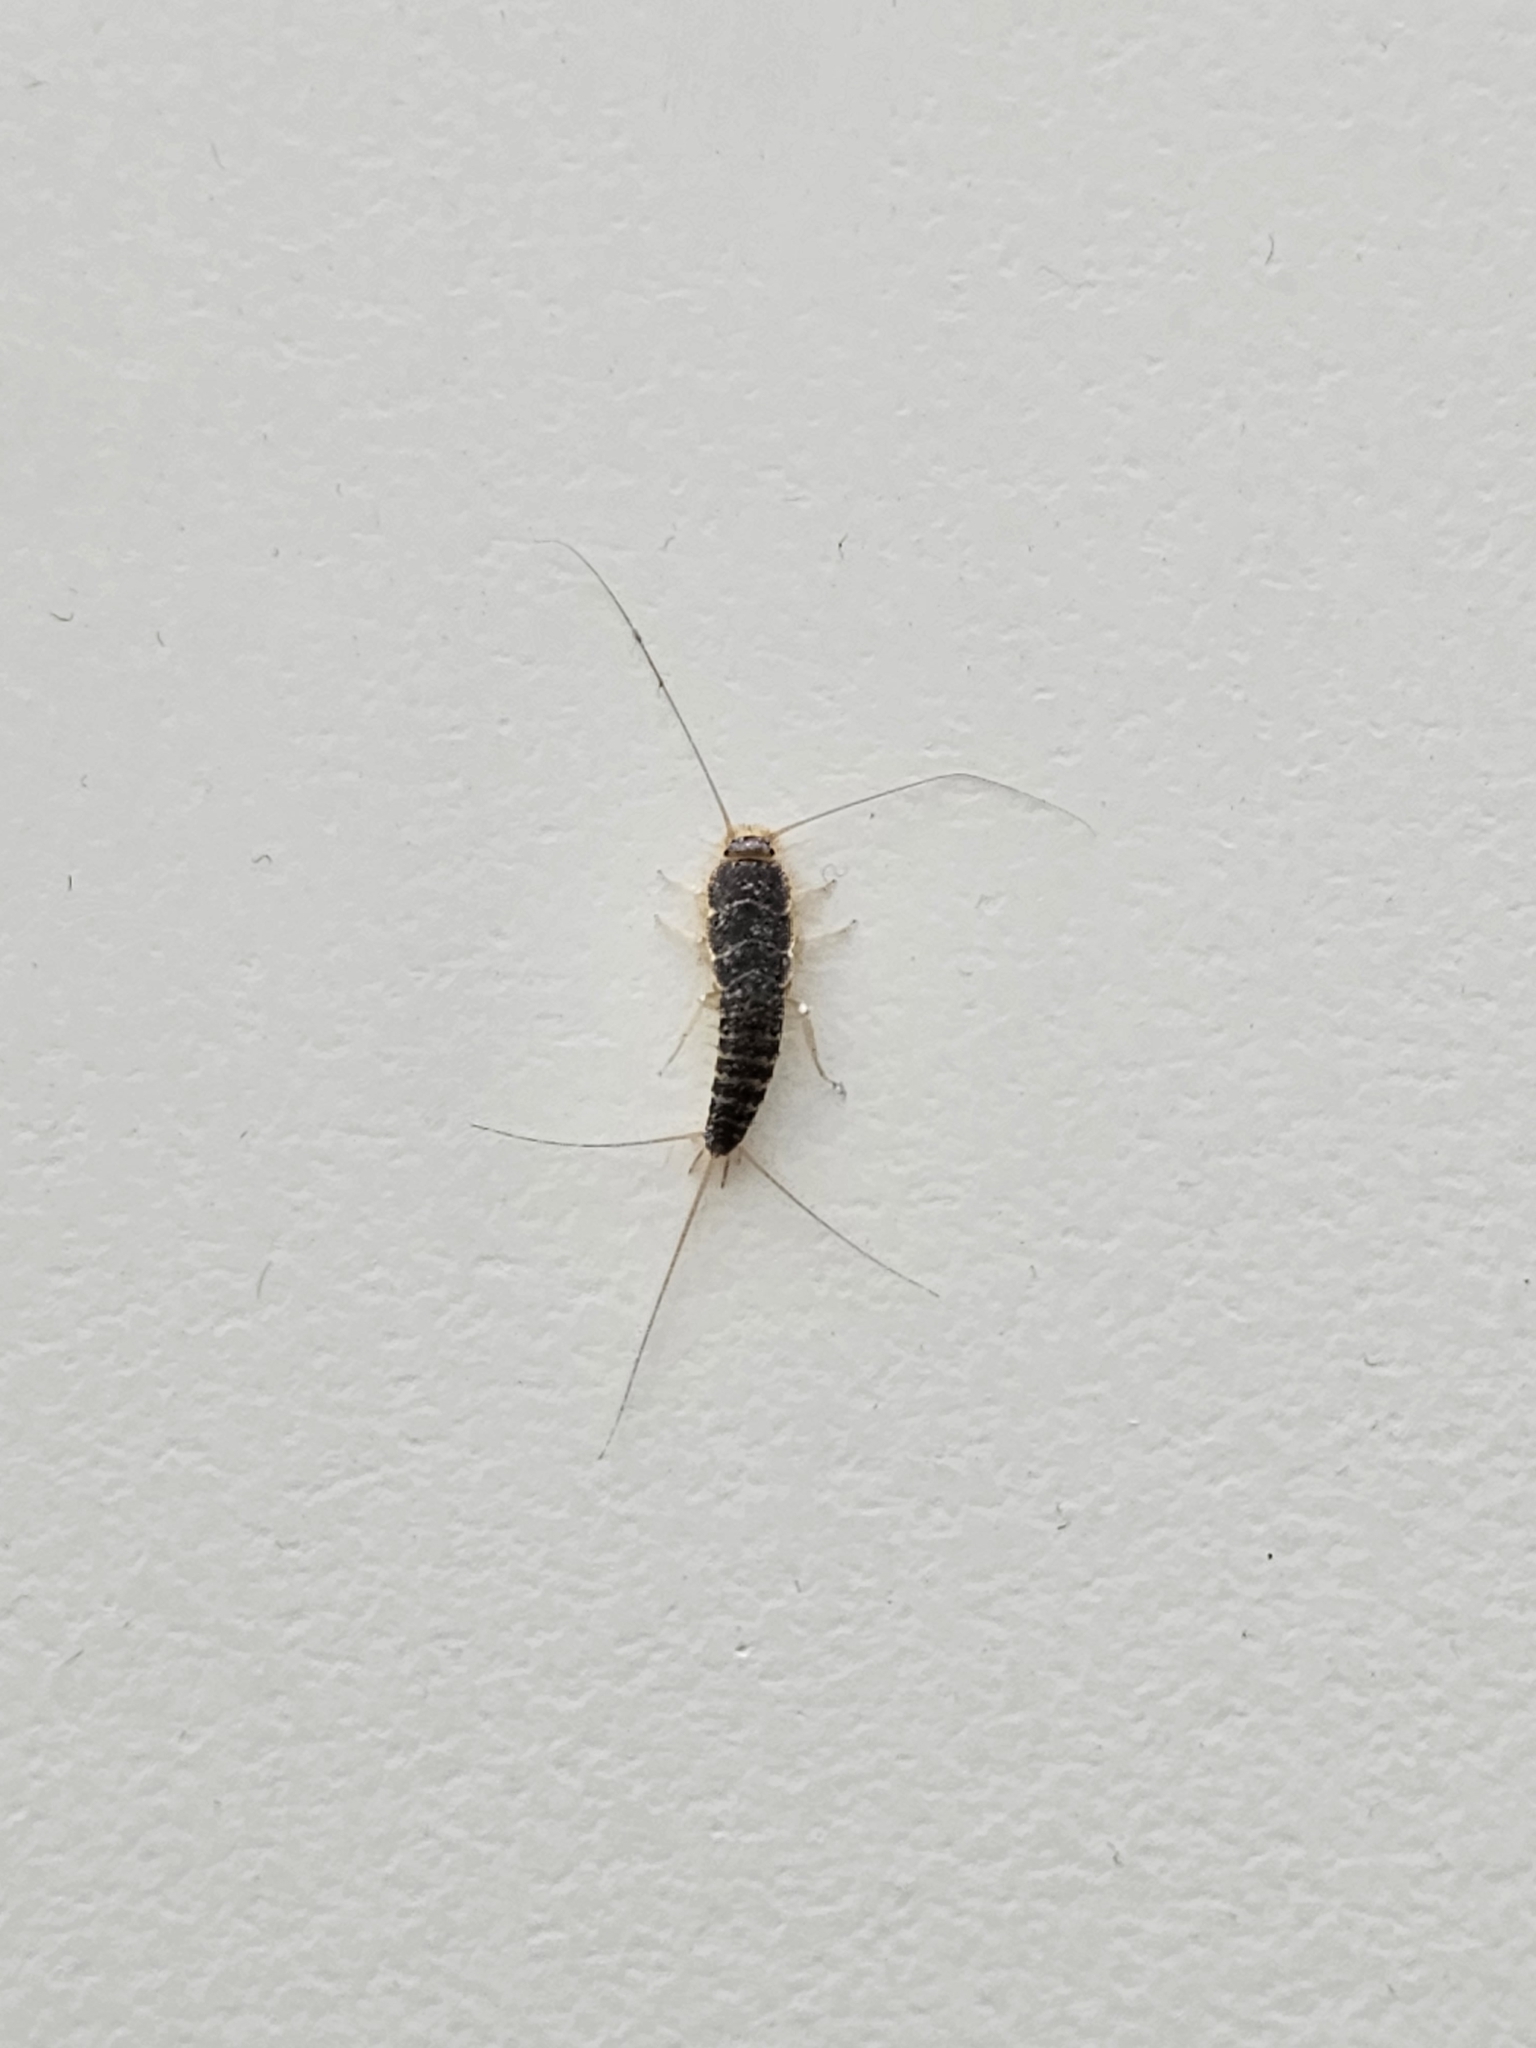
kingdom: Animalia
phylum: Arthropoda
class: Insecta
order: Zygentoma
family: Lepismatidae
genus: Ctenolepisma
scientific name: Ctenolepisma longicaudatum
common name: Silverfish
